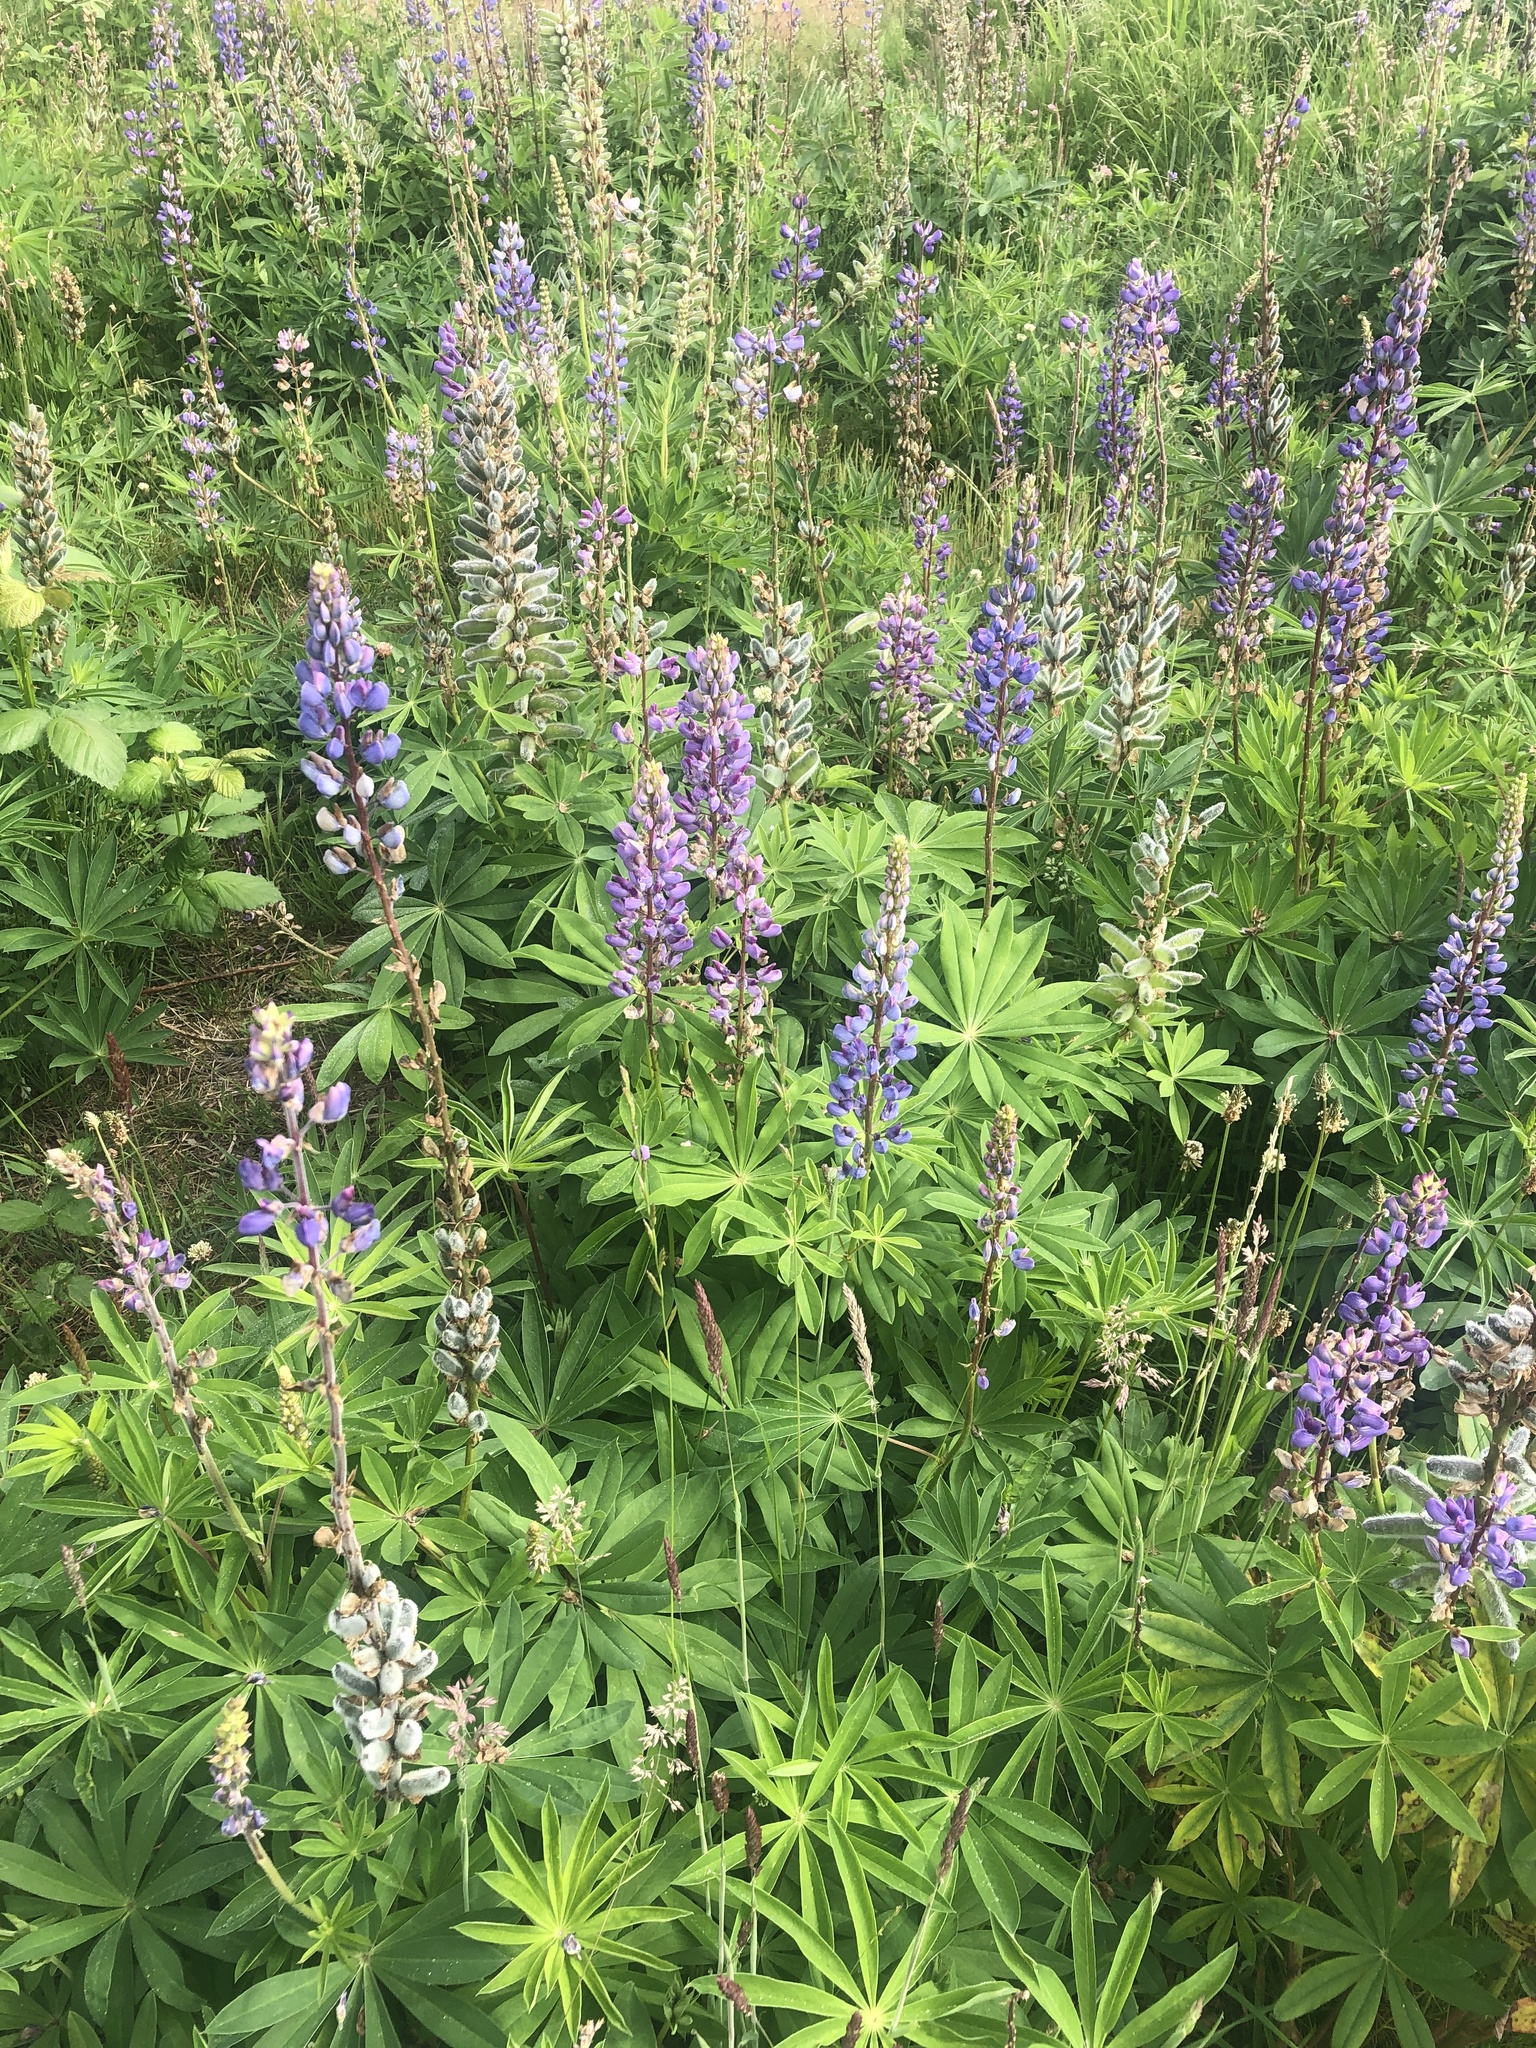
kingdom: Plantae
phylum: Tracheophyta
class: Magnoliopsida
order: Fabales
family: Fabaceae
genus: Lupinus
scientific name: Lupinus polyphyllus
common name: Garden lupin
